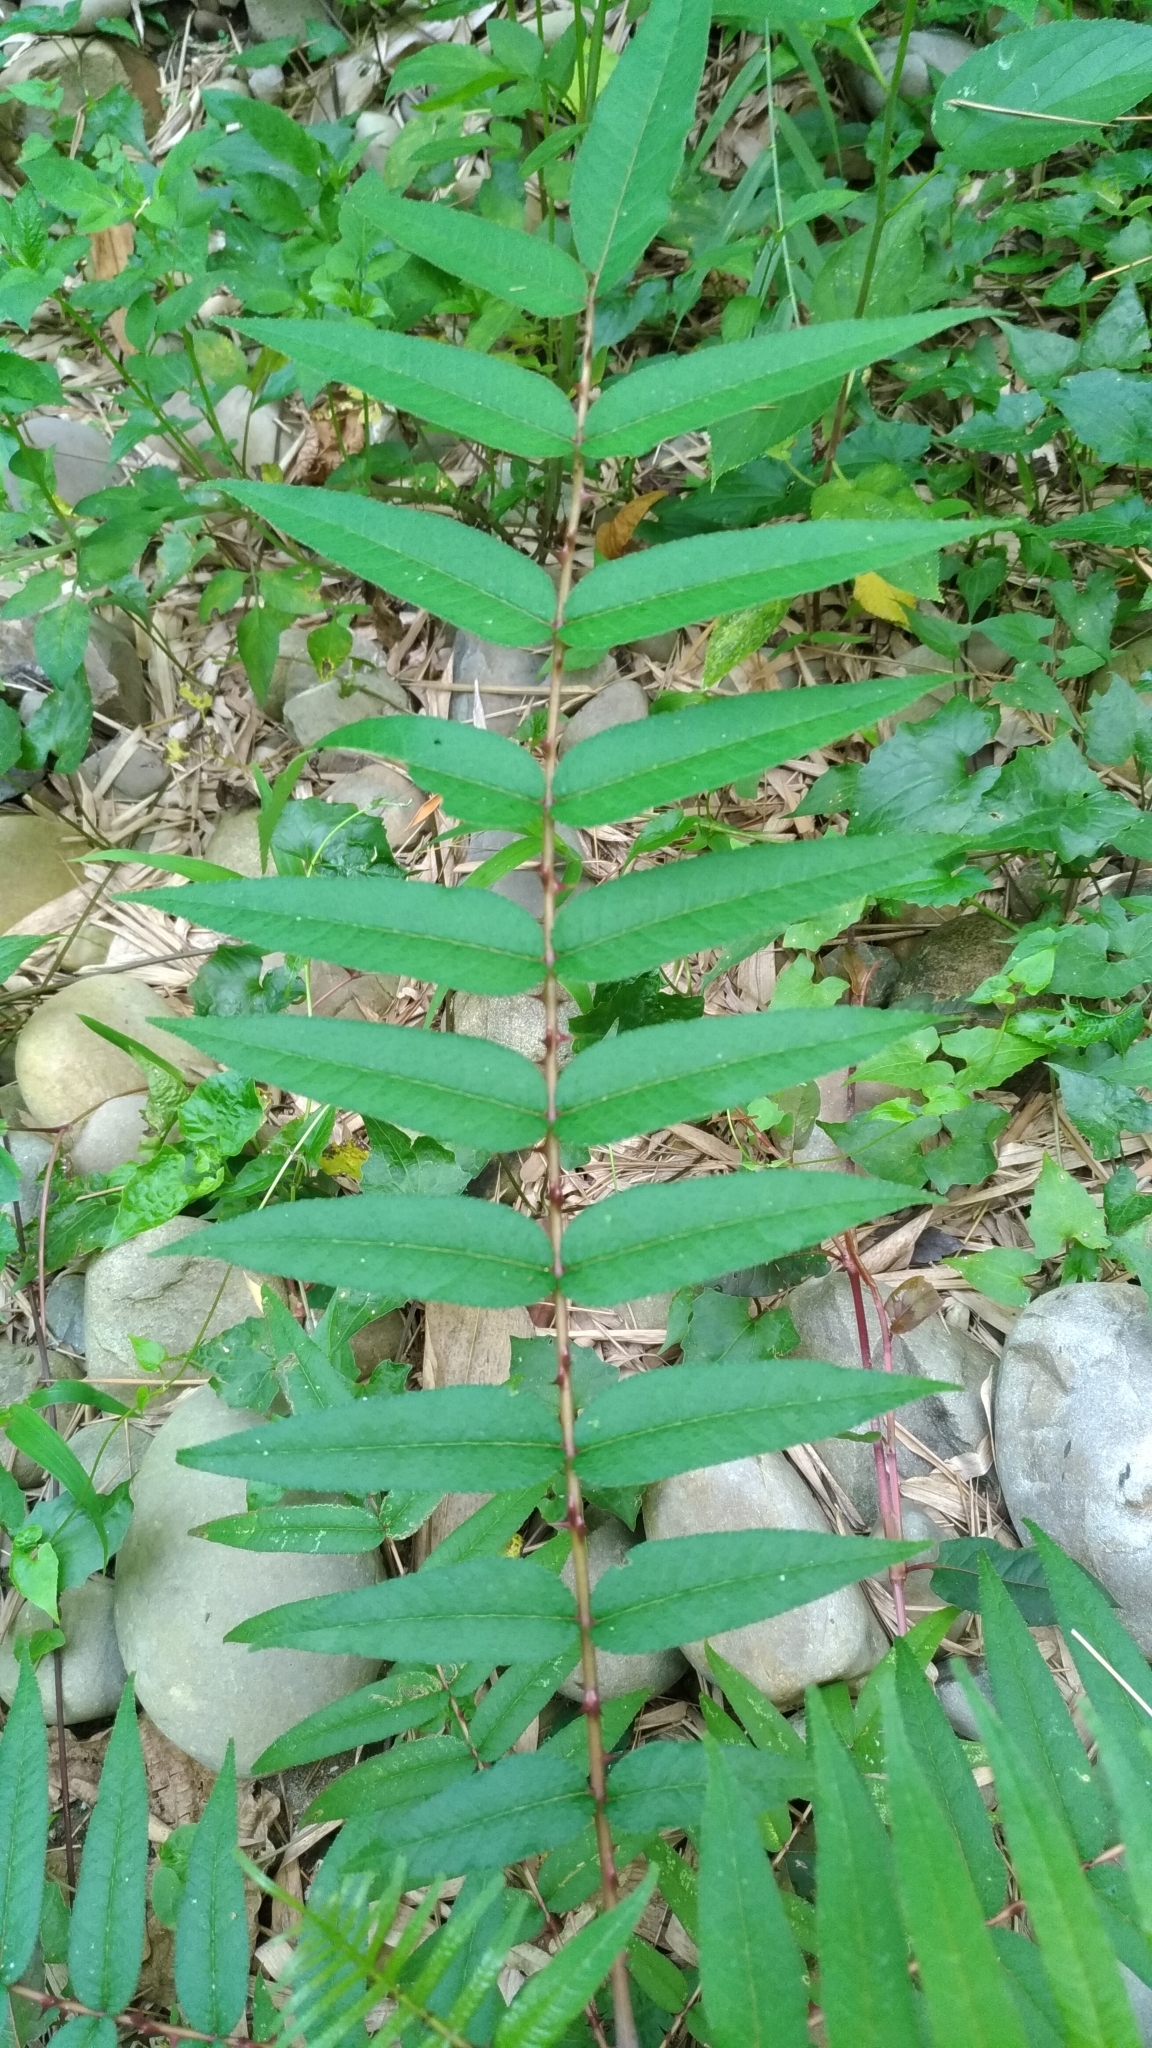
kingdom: Plantae
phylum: Tracheophyta
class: Magnoliopsida
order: Sapindales
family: Rutaceae
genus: Zanthoxylum
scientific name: Zanthoxylum ailanthoides
